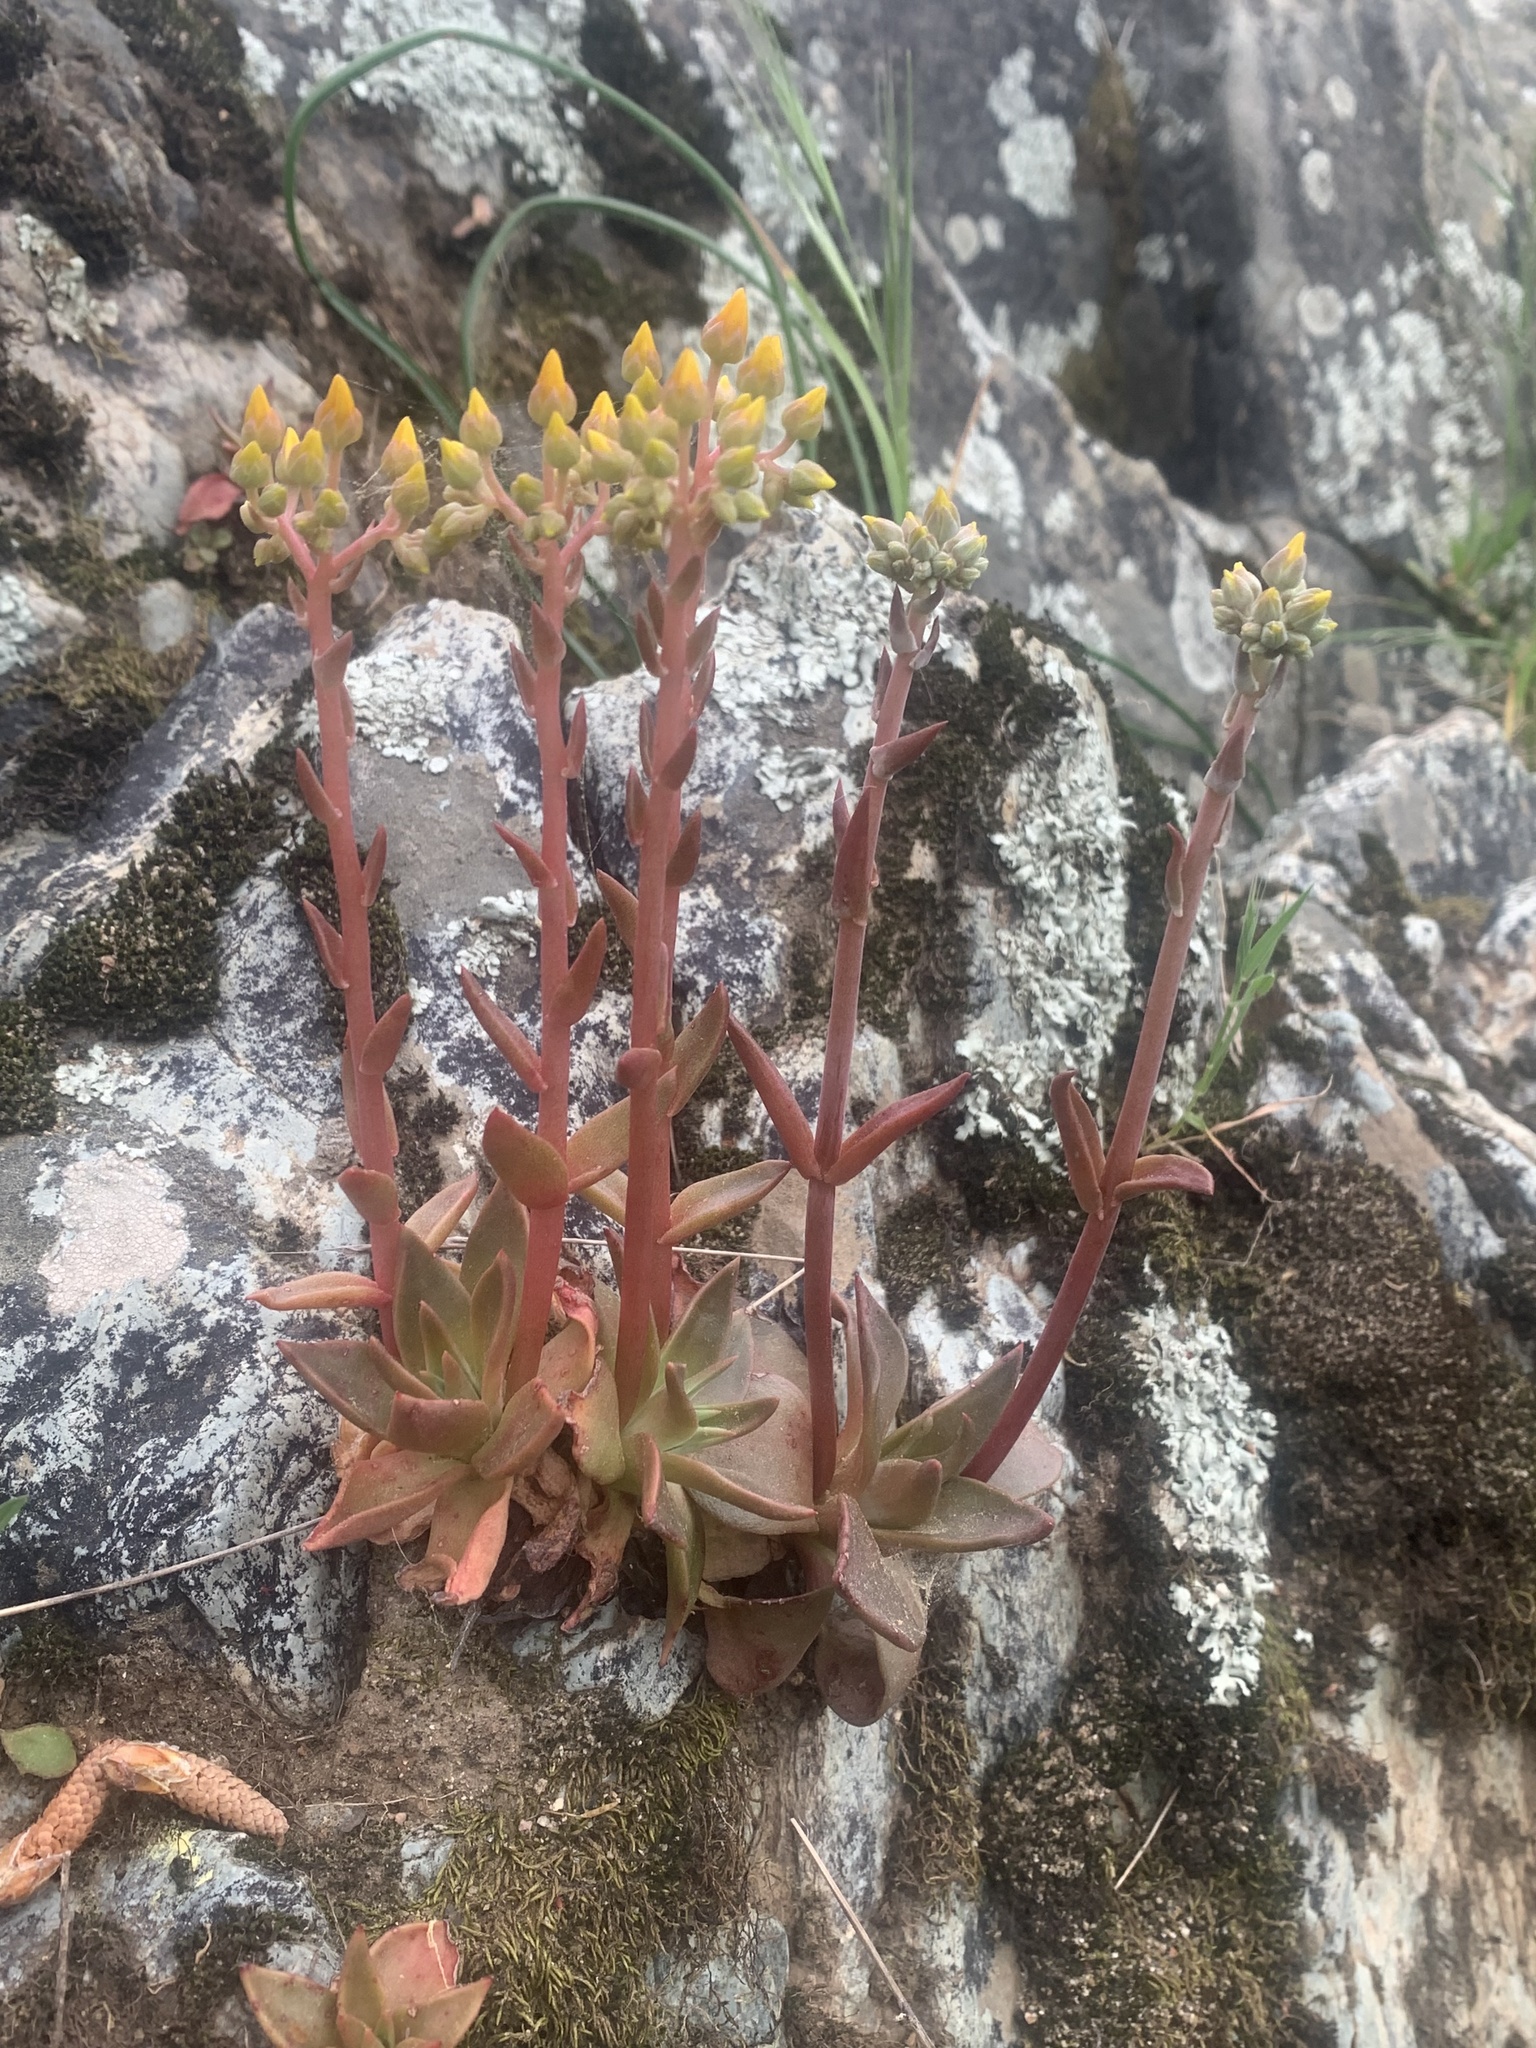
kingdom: Plantae
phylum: Tracheophyta
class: Magnoliopsida
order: Saxifragales
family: Crassulaceae
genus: Dudleya
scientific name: Dudleya cymosa
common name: Canyon dudleya
